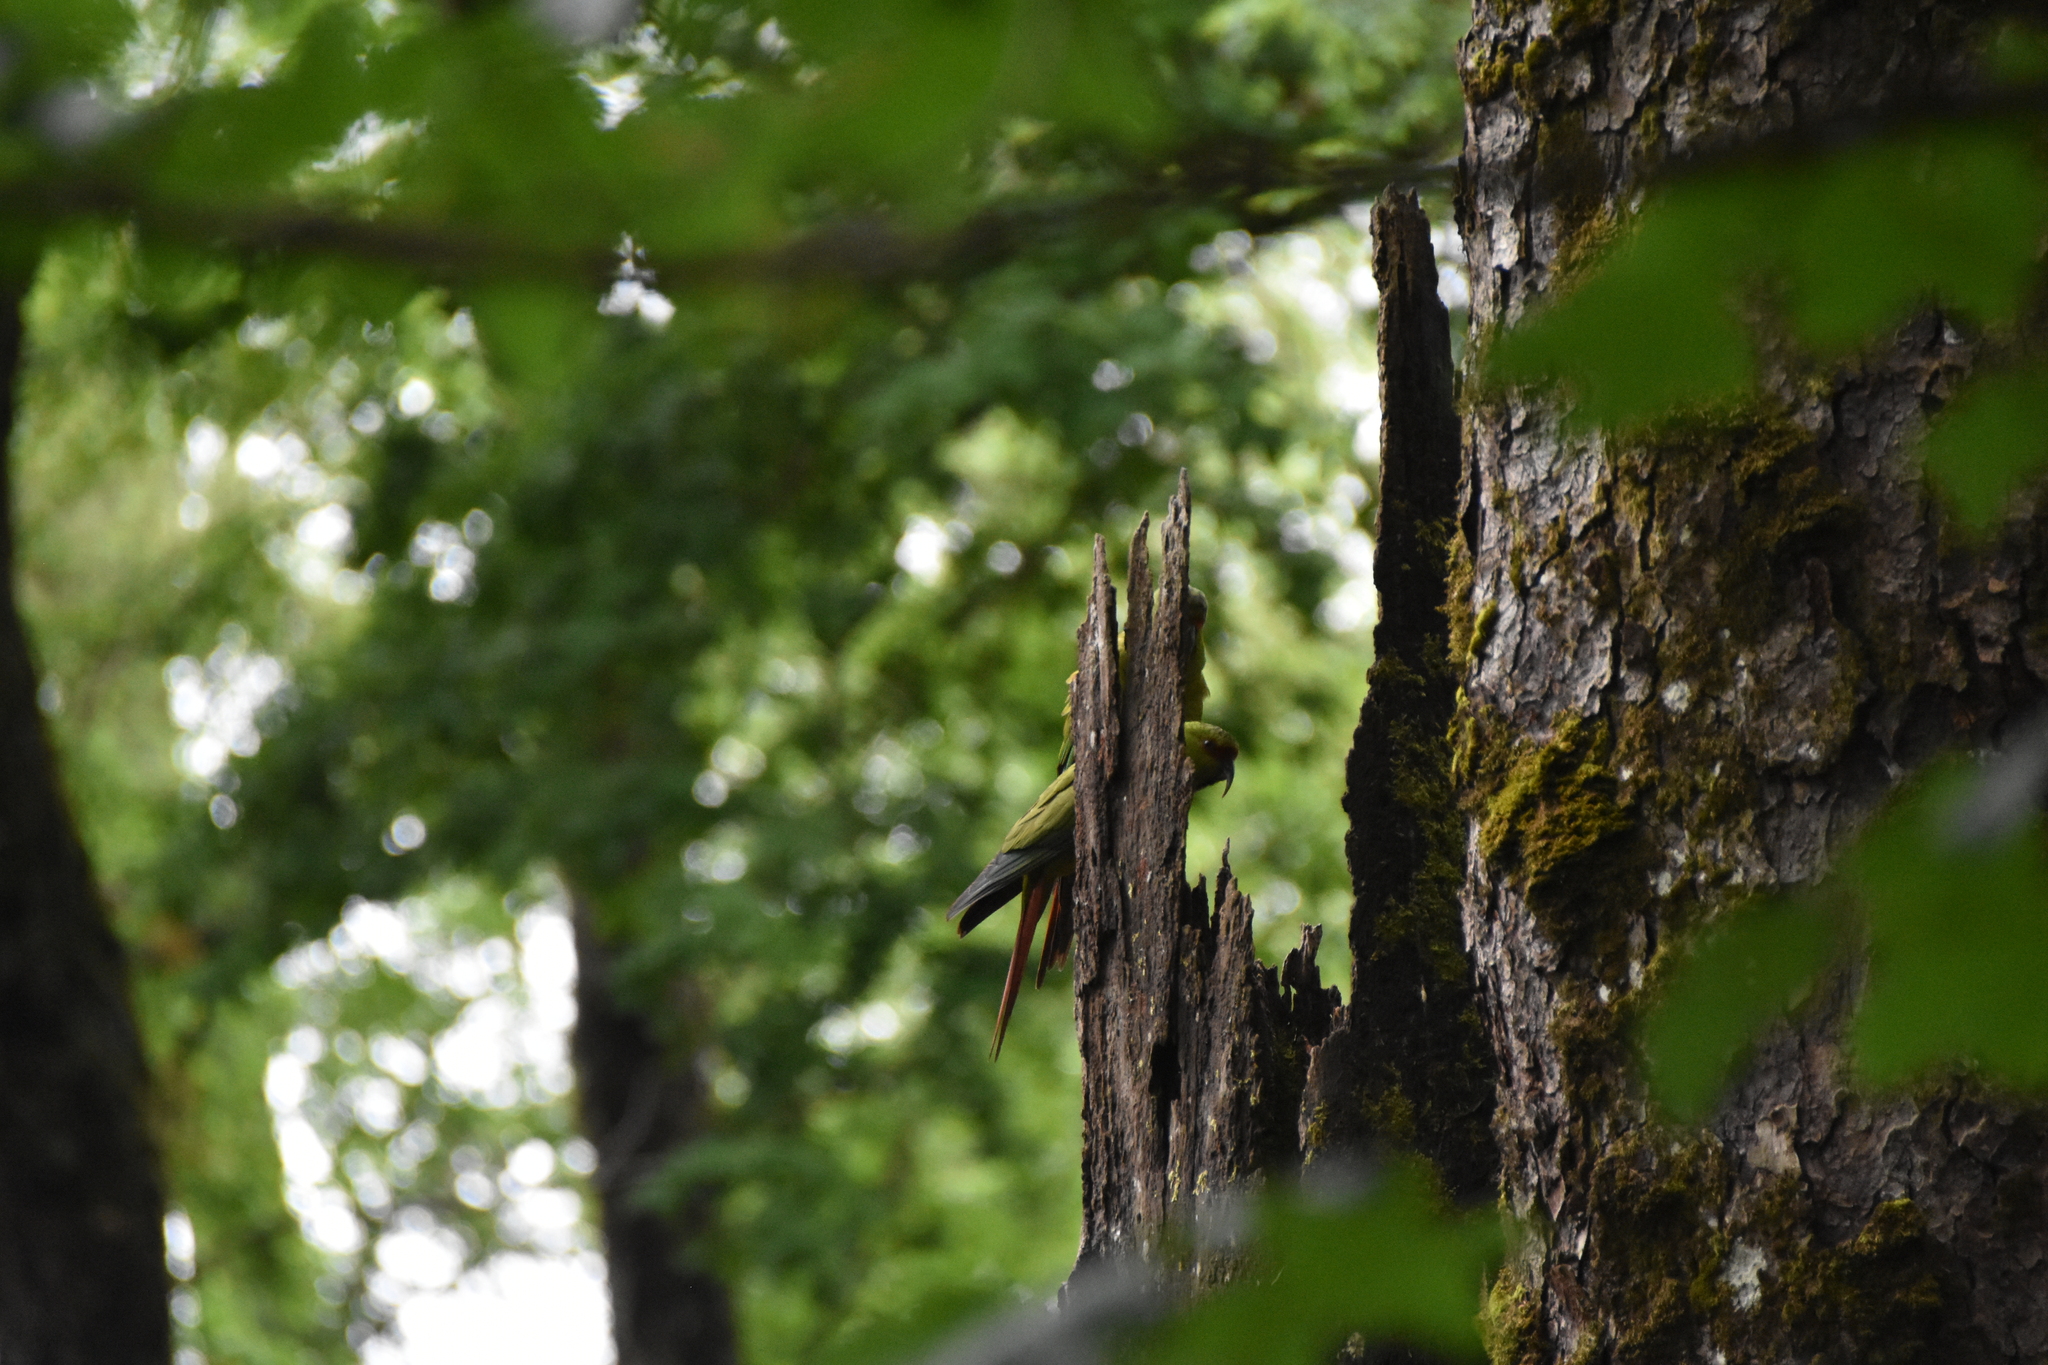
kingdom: Animalia
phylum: Chordata
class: Aves
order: Psittaciformes
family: Psittacidae
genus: Enicognathus
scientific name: Enicognathus leptorhynchus
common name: Slender-billed parakeet
